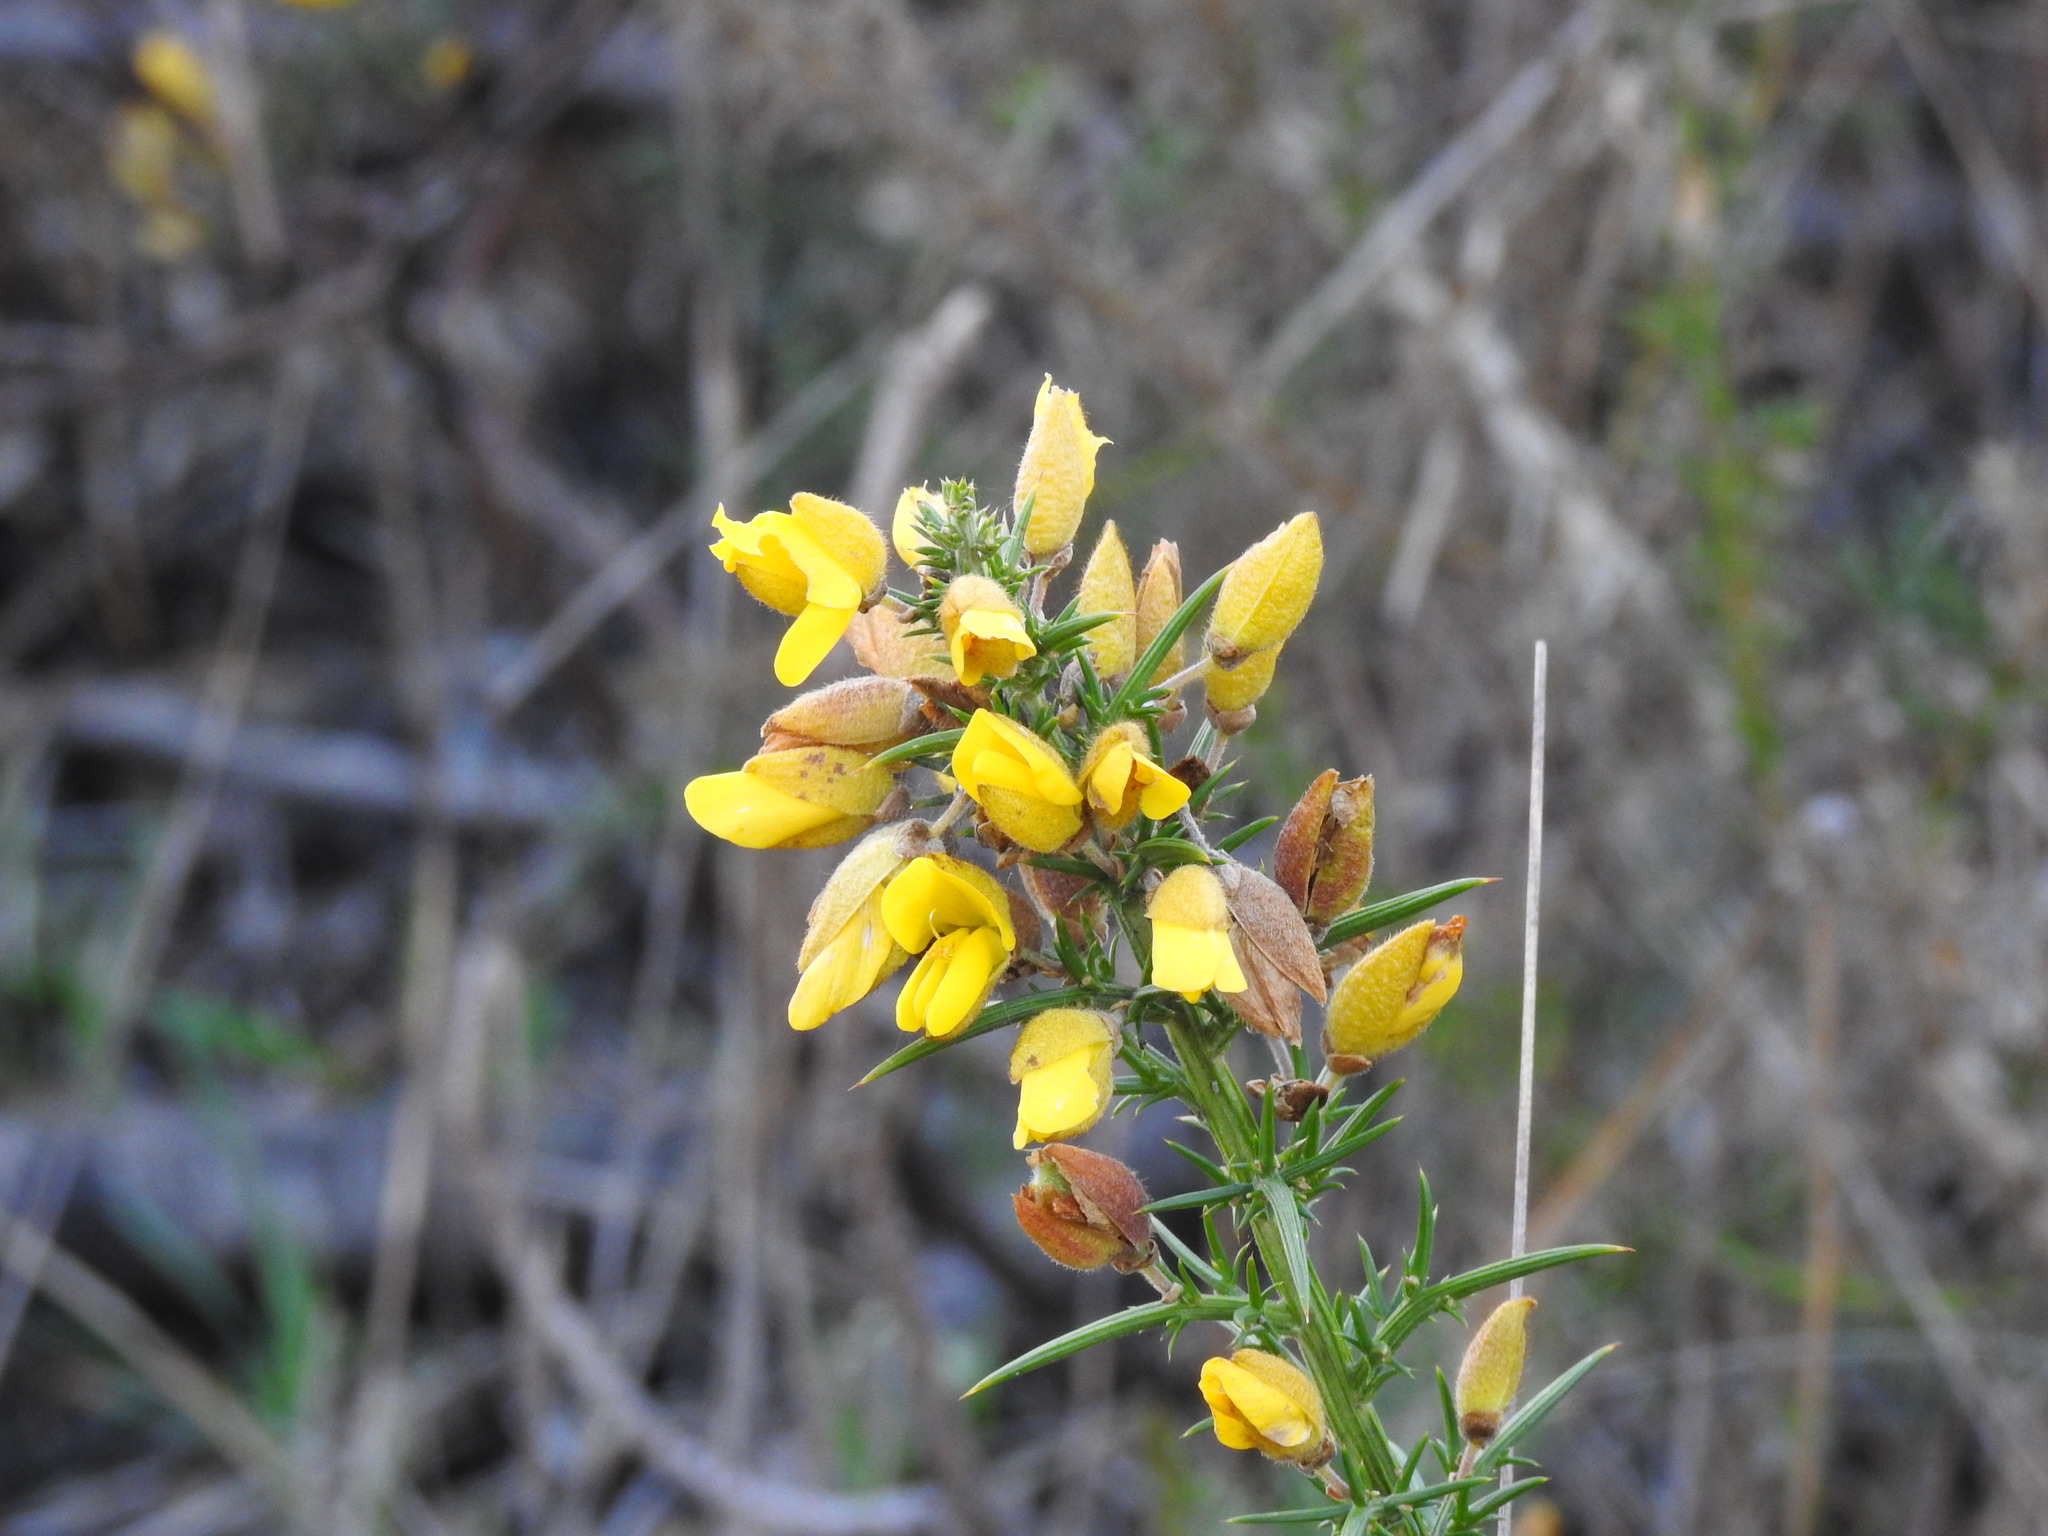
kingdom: Plantae
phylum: Tracheophyta
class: Magnoliopsida
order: Fabales
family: Fabaceae
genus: Ulex
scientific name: Ulex europaeus
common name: Common gorse
